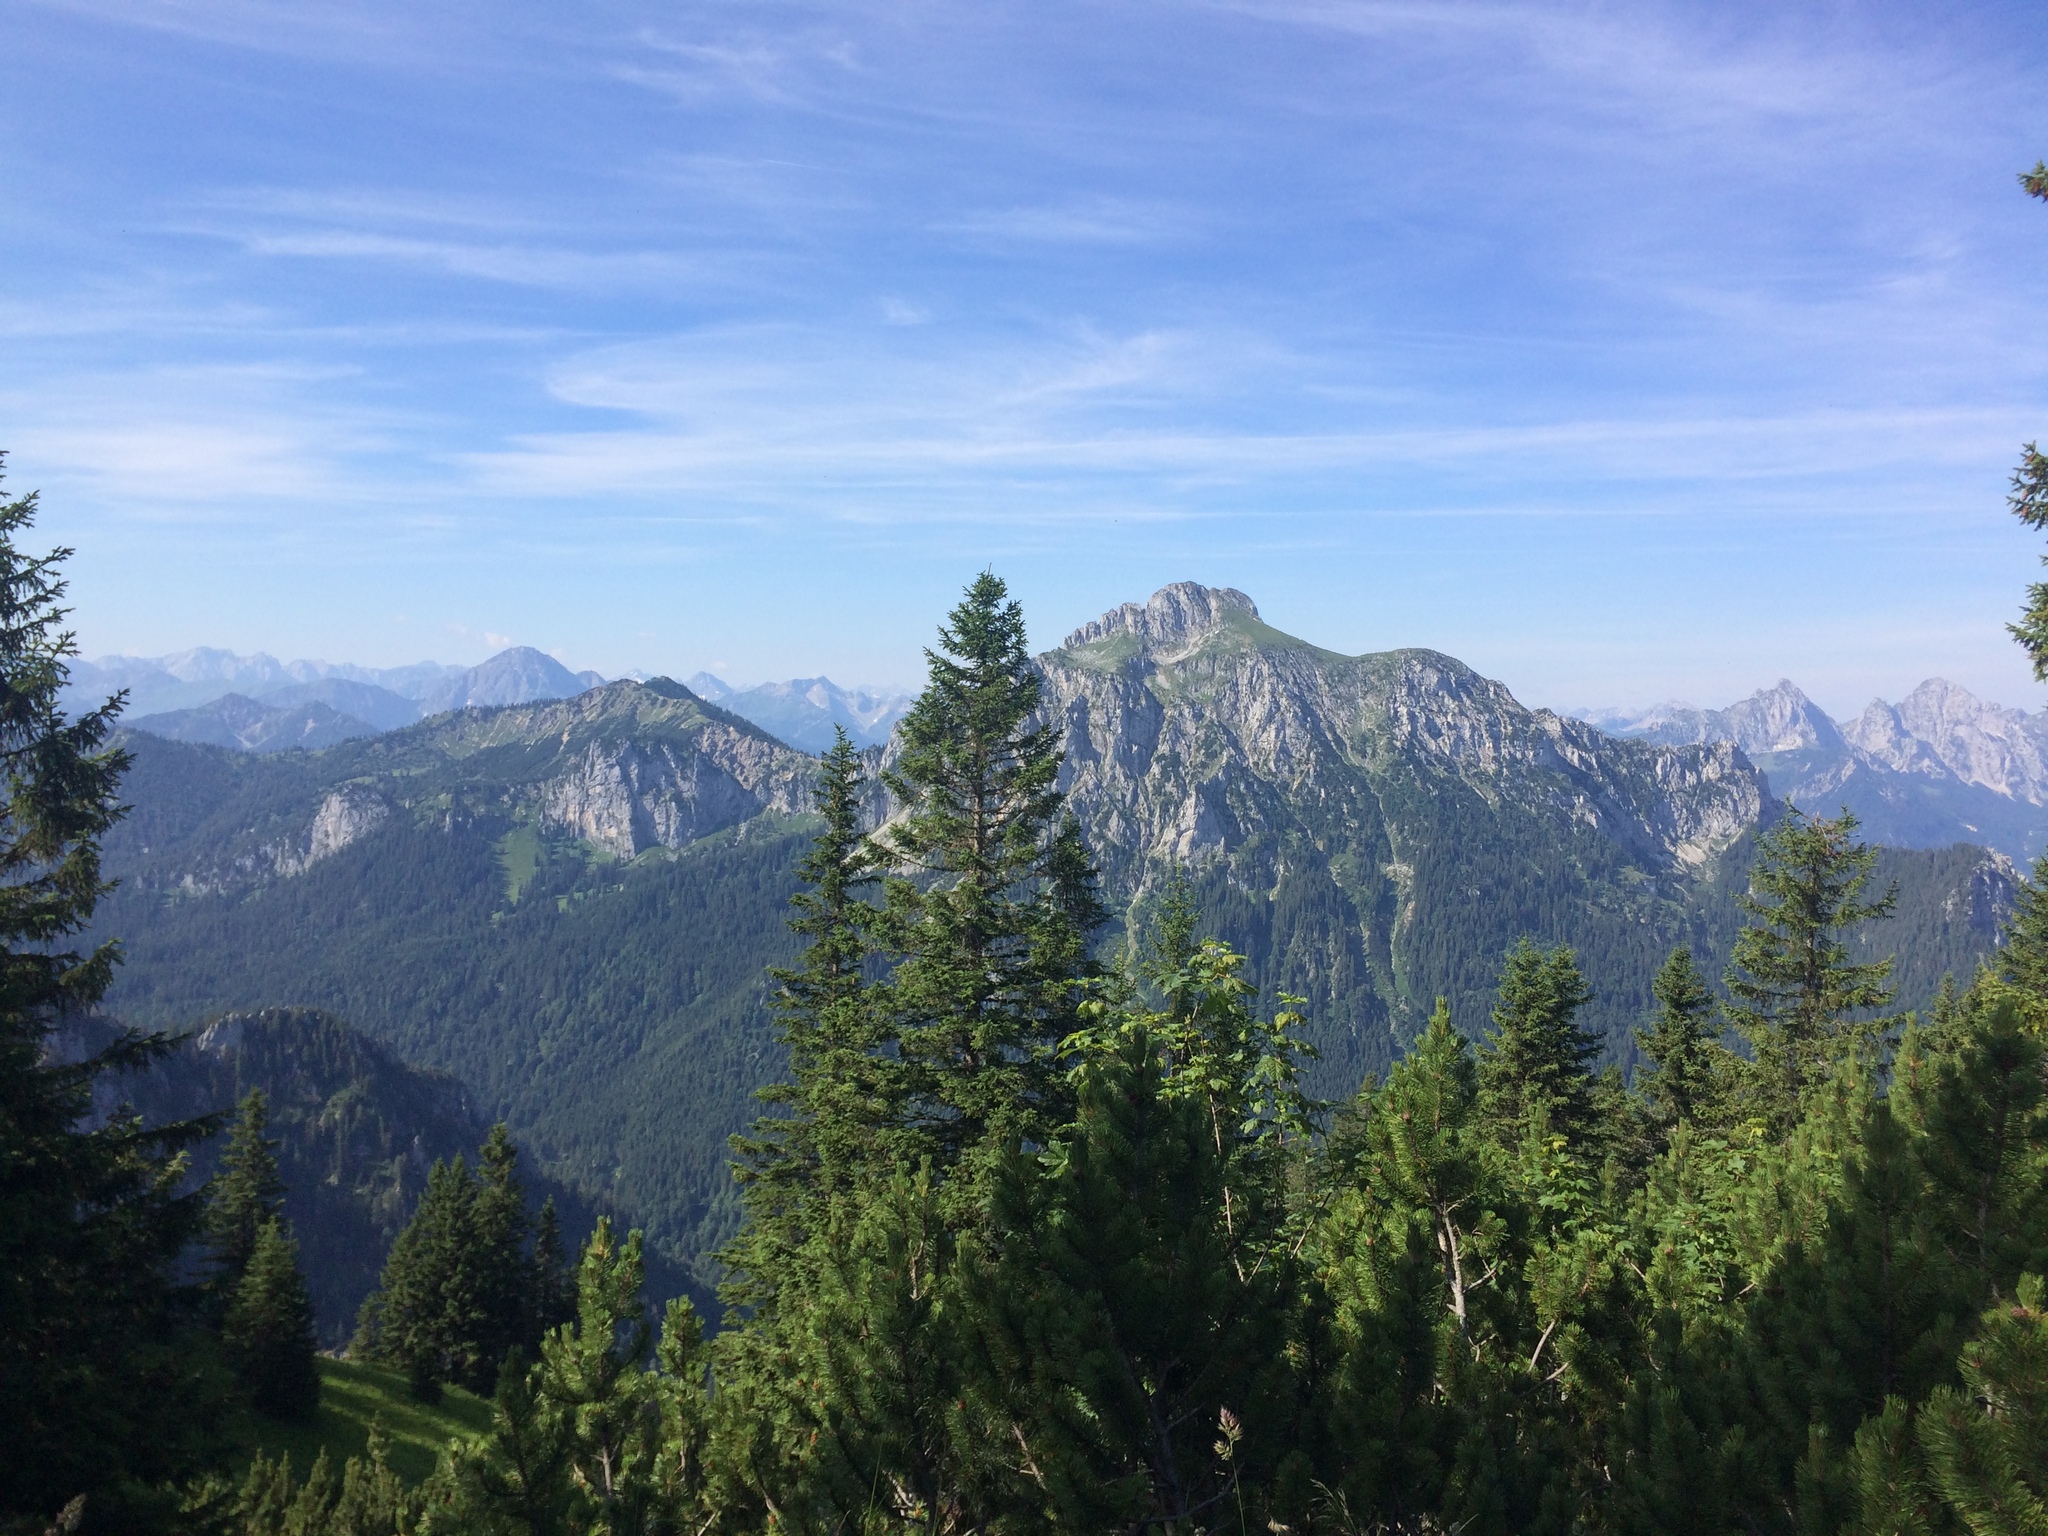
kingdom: Plantae
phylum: Tracheophyta
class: Pinopsida
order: Pinales
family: Pinaceae
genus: Pinus
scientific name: Pinus mugo
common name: Mugo pine
